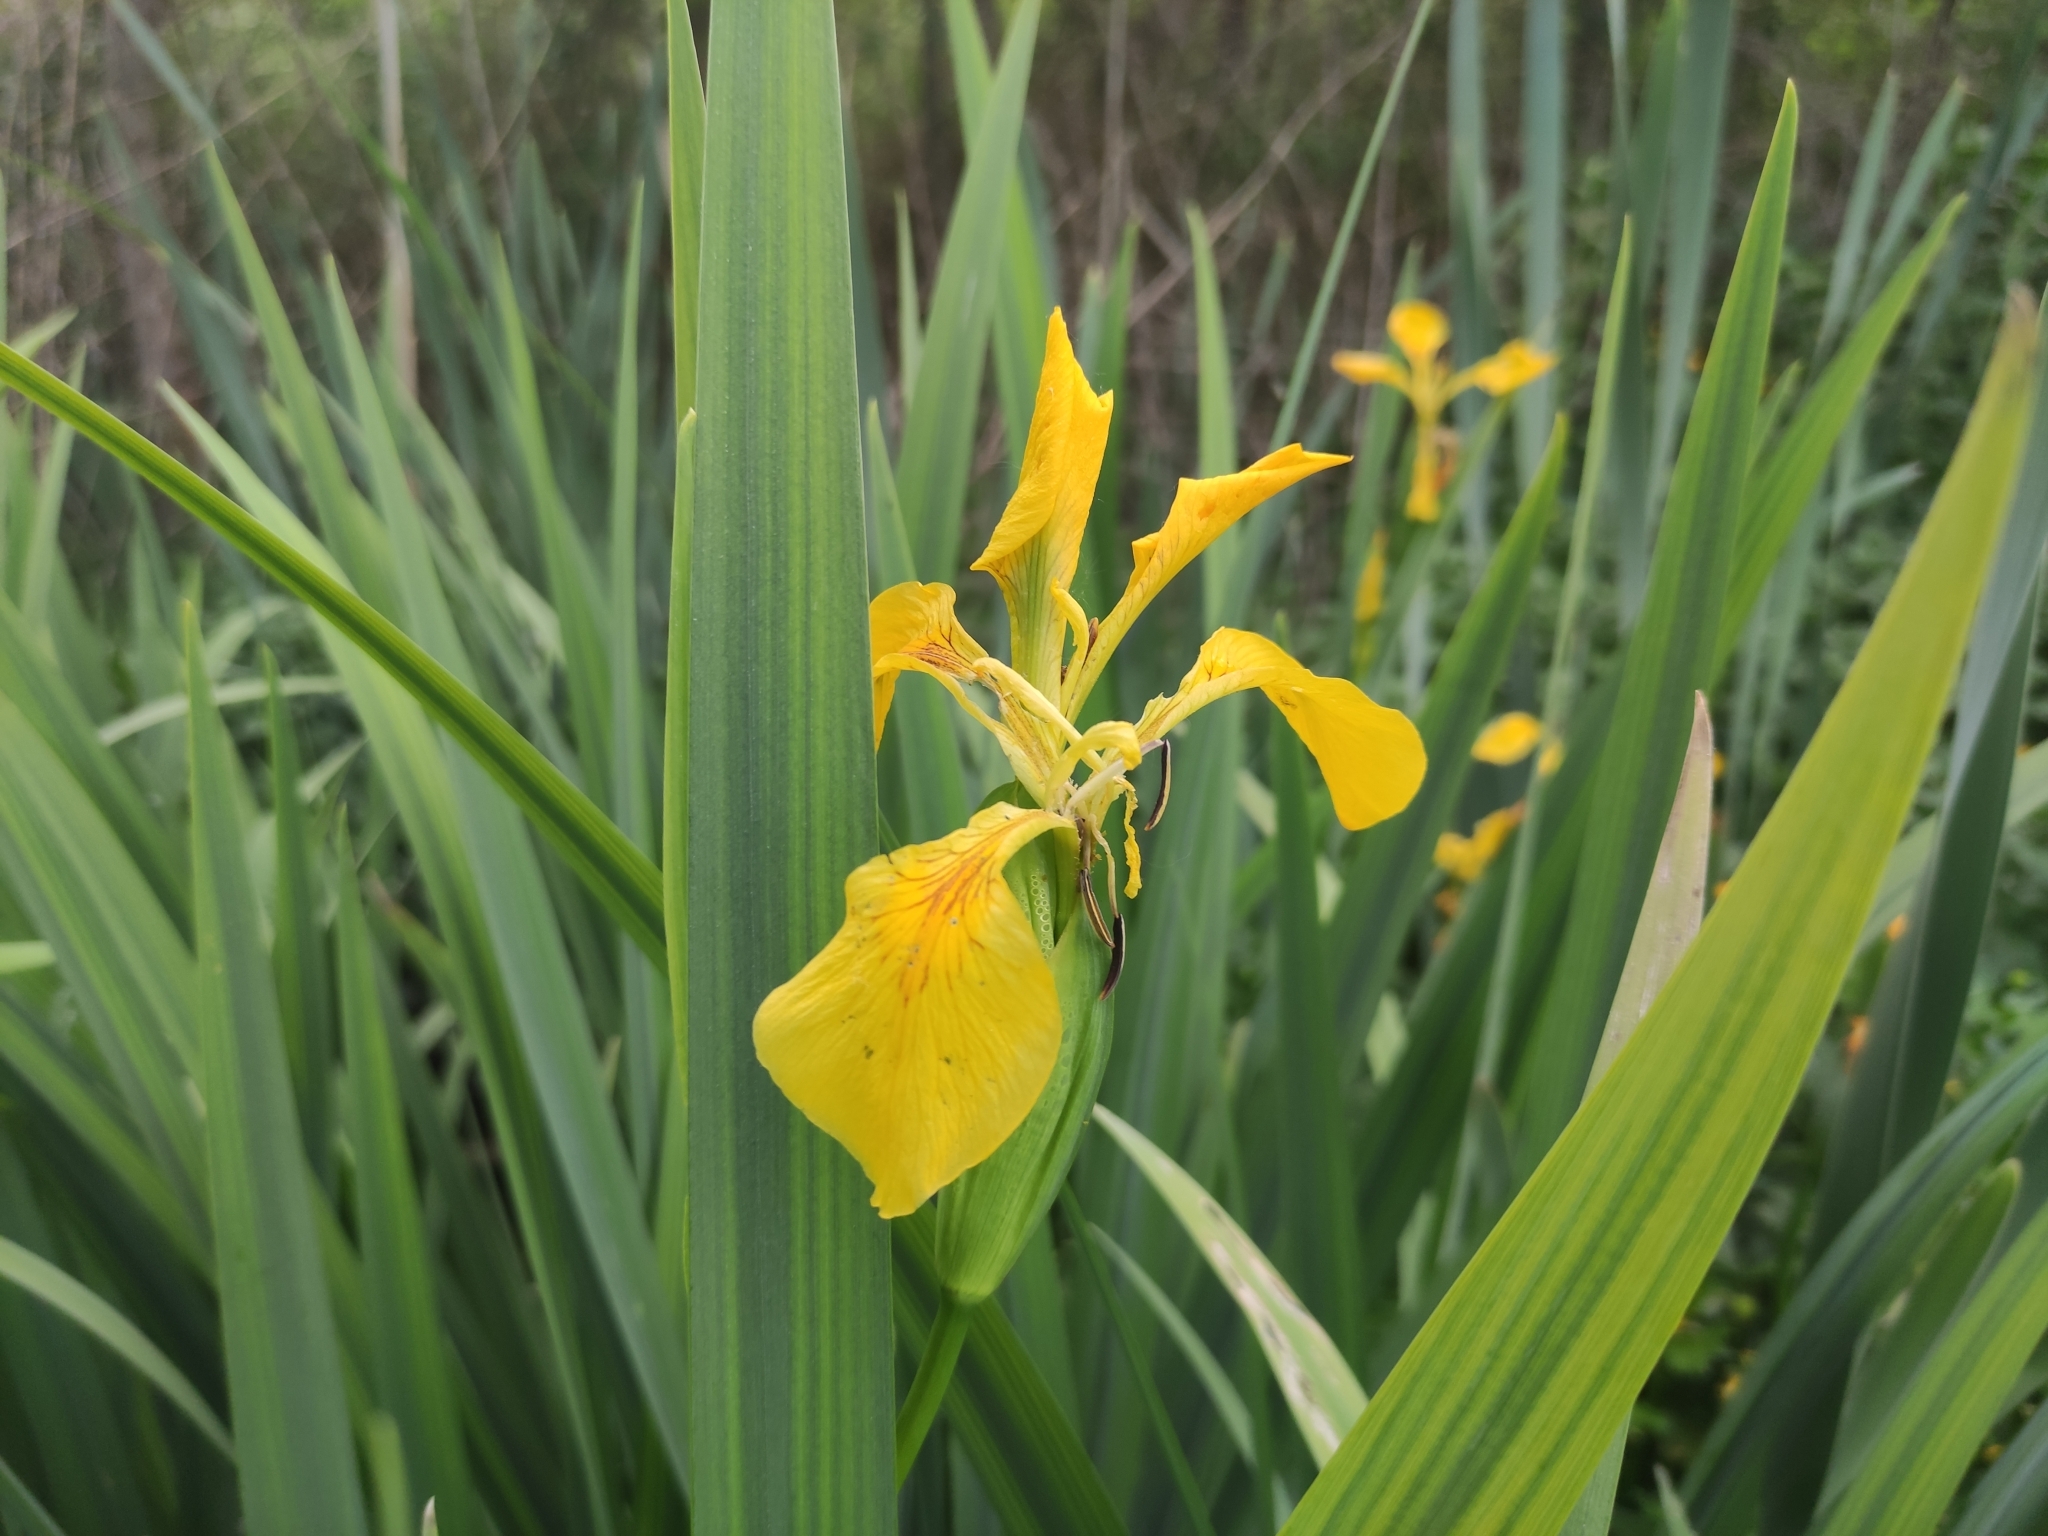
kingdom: Plantae
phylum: Tracheophyta
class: Liliopsida
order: Asparagales
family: Iridaceae
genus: Iris
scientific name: Iris pseudacorus
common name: Yellow flag
